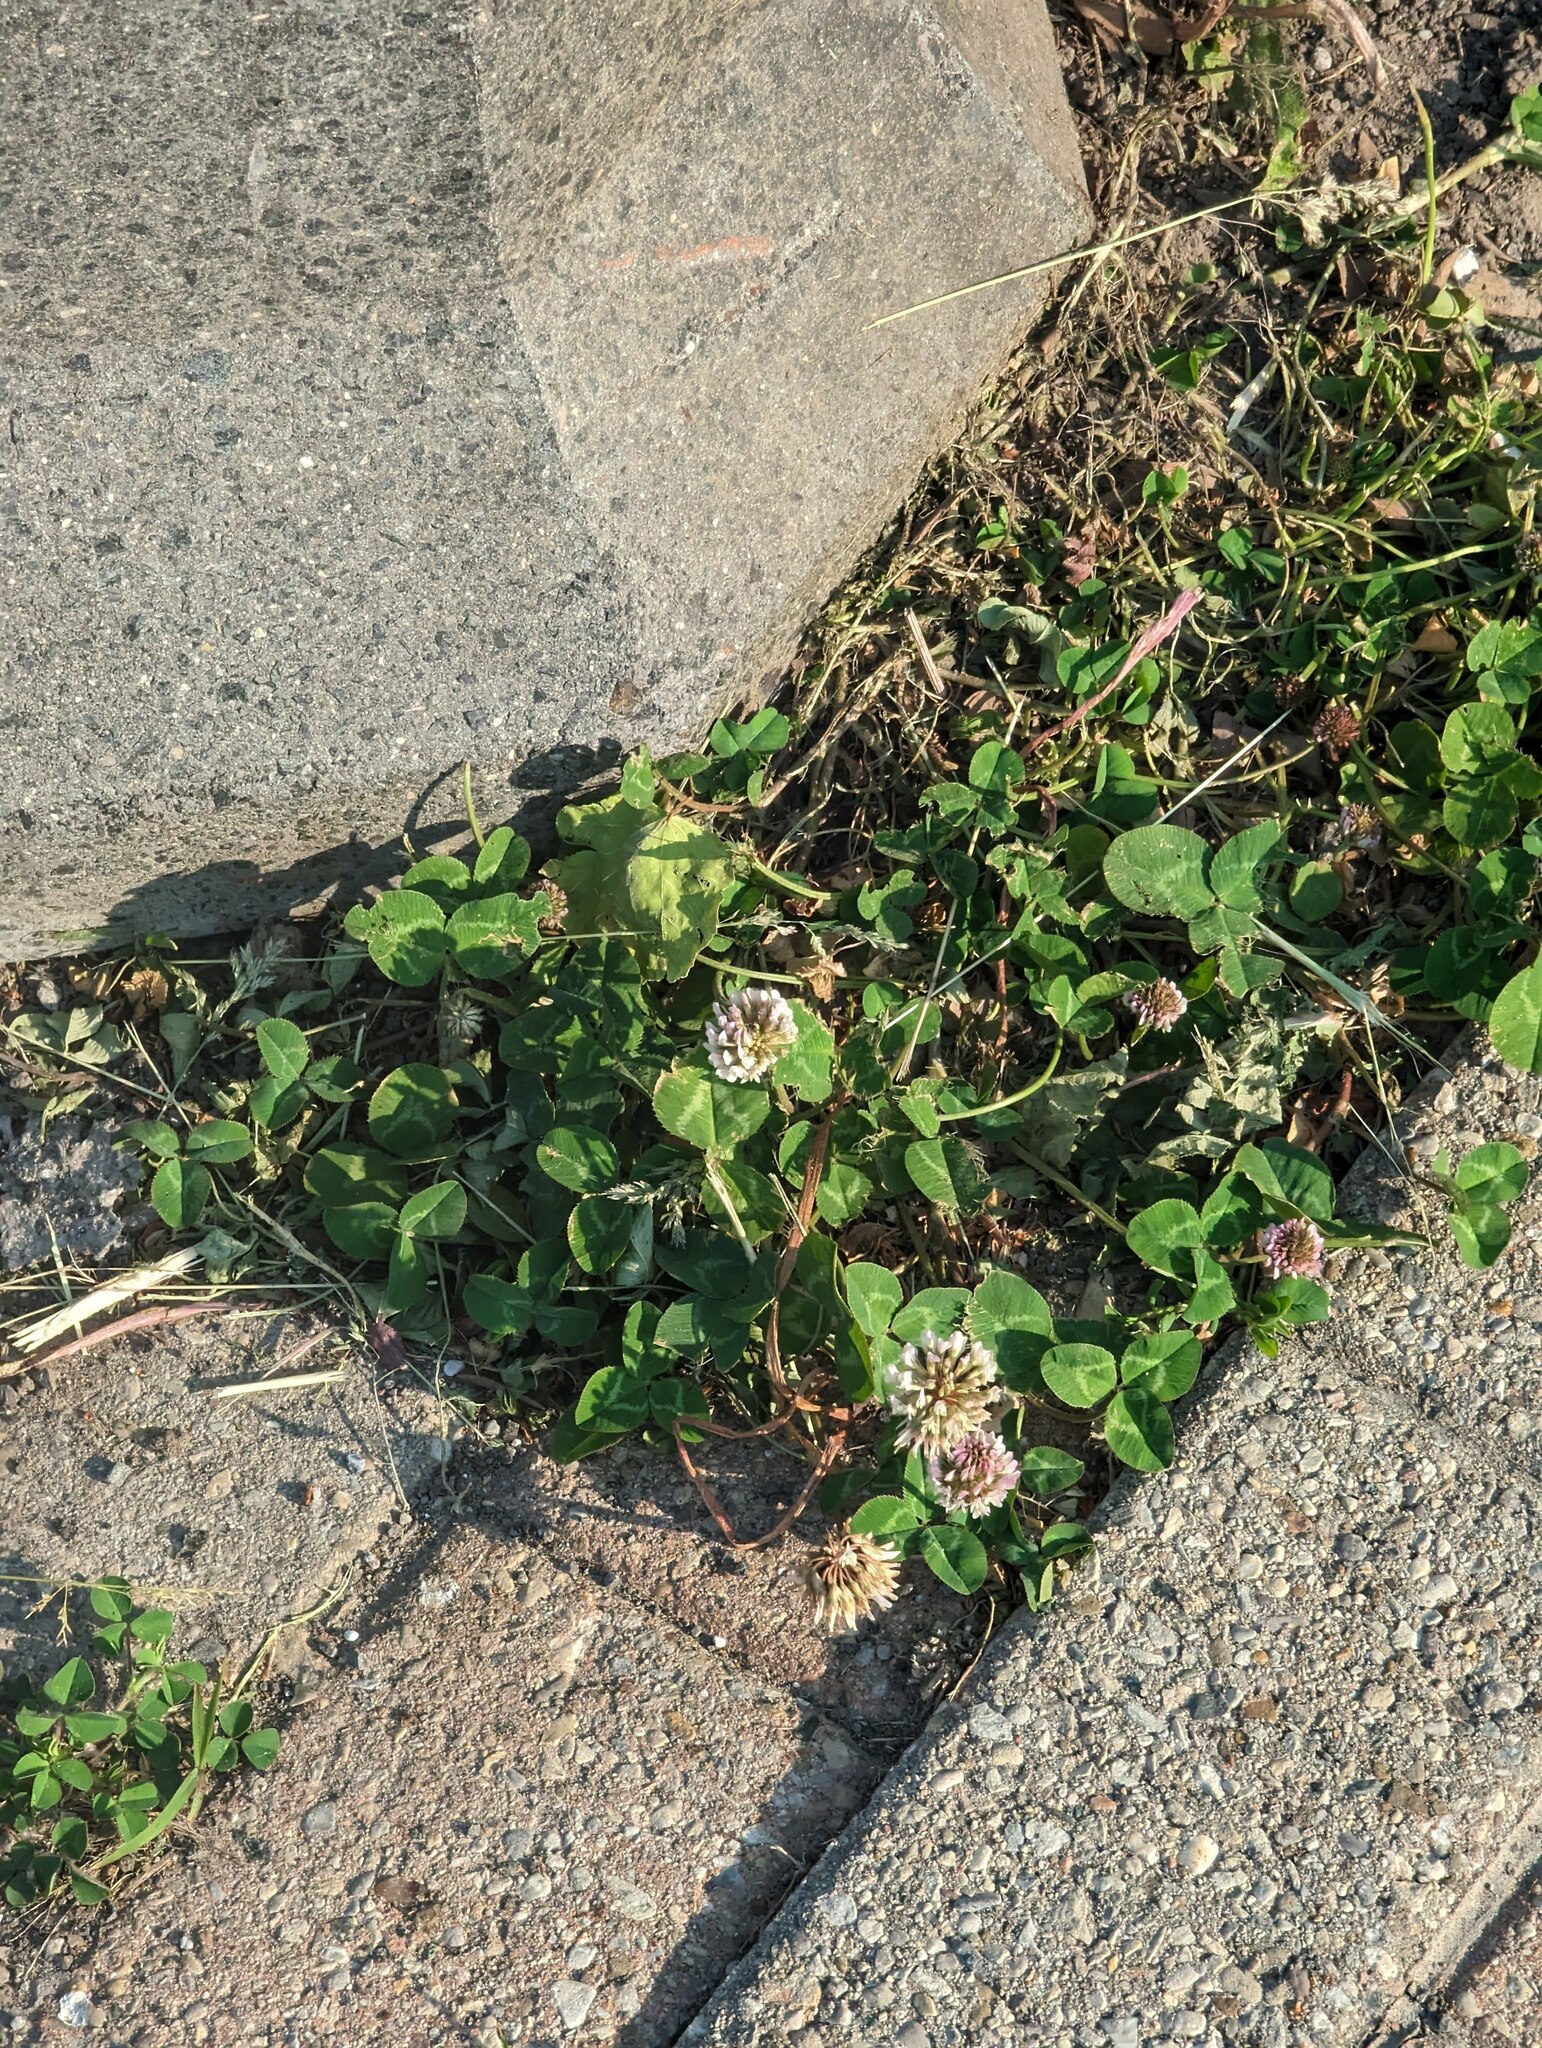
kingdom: Plantae
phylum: Tracheophyta
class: Magnoliopsida
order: Fabales
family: Fabaceae
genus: Trifolium
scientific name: Trifolium repens
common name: White clover
